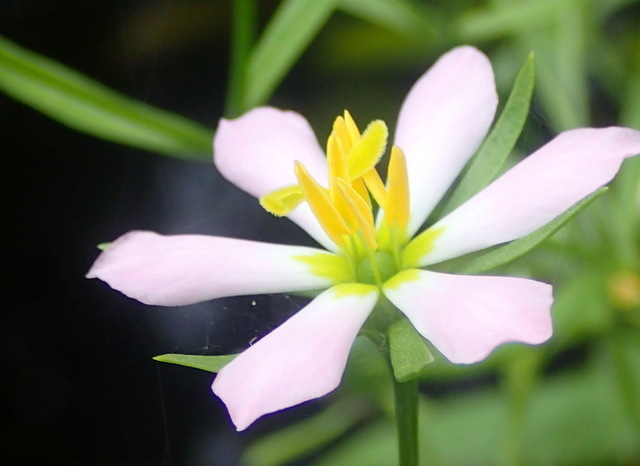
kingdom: Plantae
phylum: Tracheophyta
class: Magnoliopsida
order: Gentianales
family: Gentianaceae
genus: Sabatia
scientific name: Sabatia calycina
